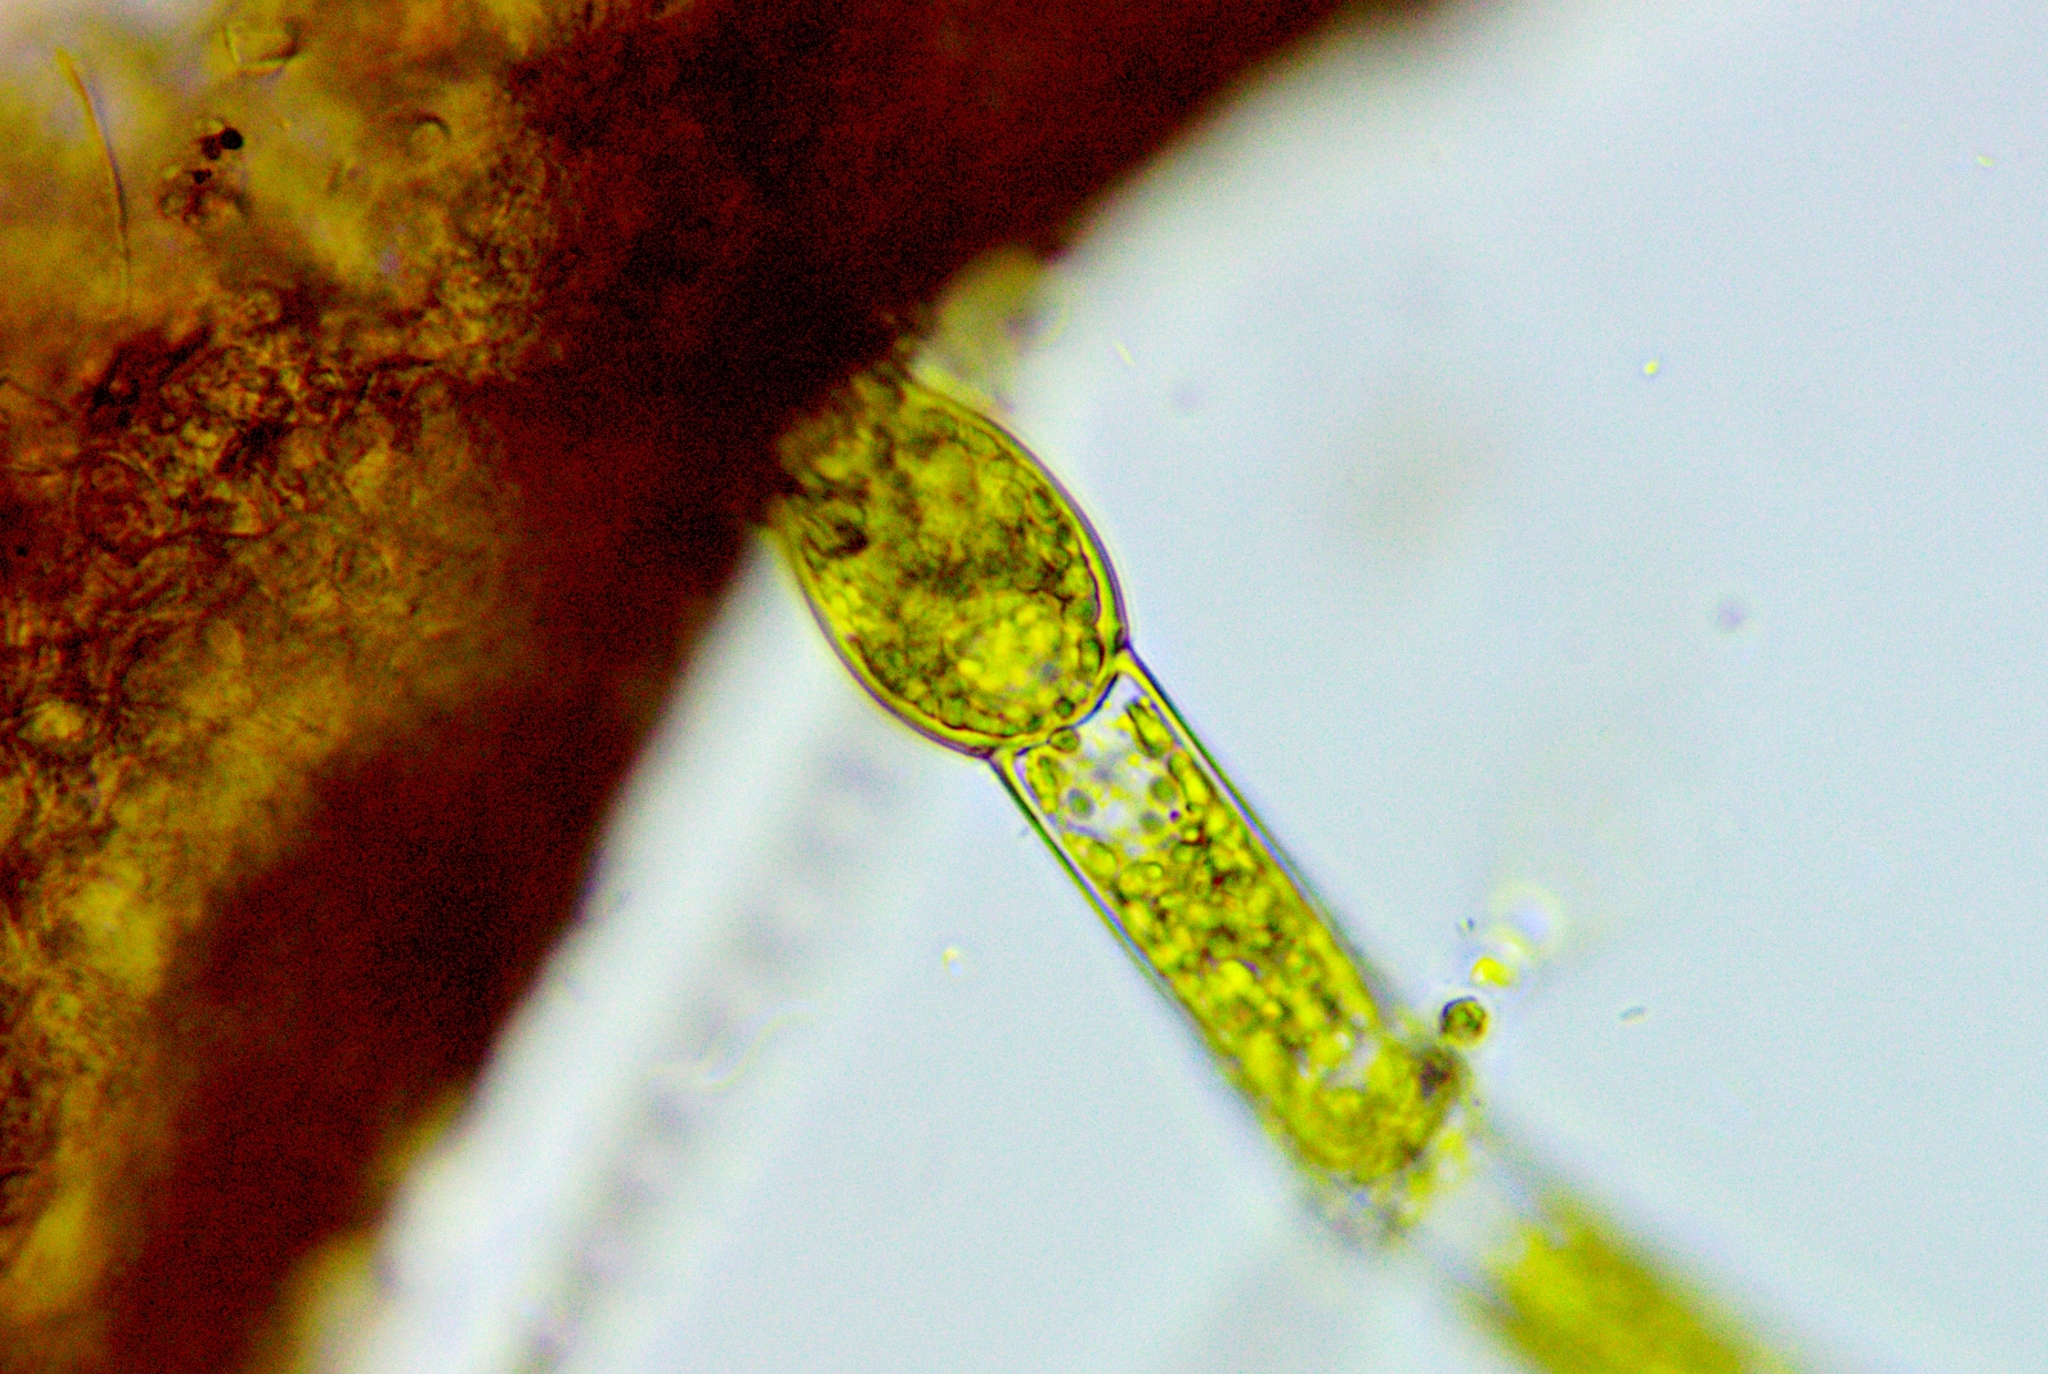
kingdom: Plantae
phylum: Chlorophyta
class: Chlorophyceae
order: Oedogoniales
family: Oedogoniaceae
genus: Oedogonium
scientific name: Oedogonium
